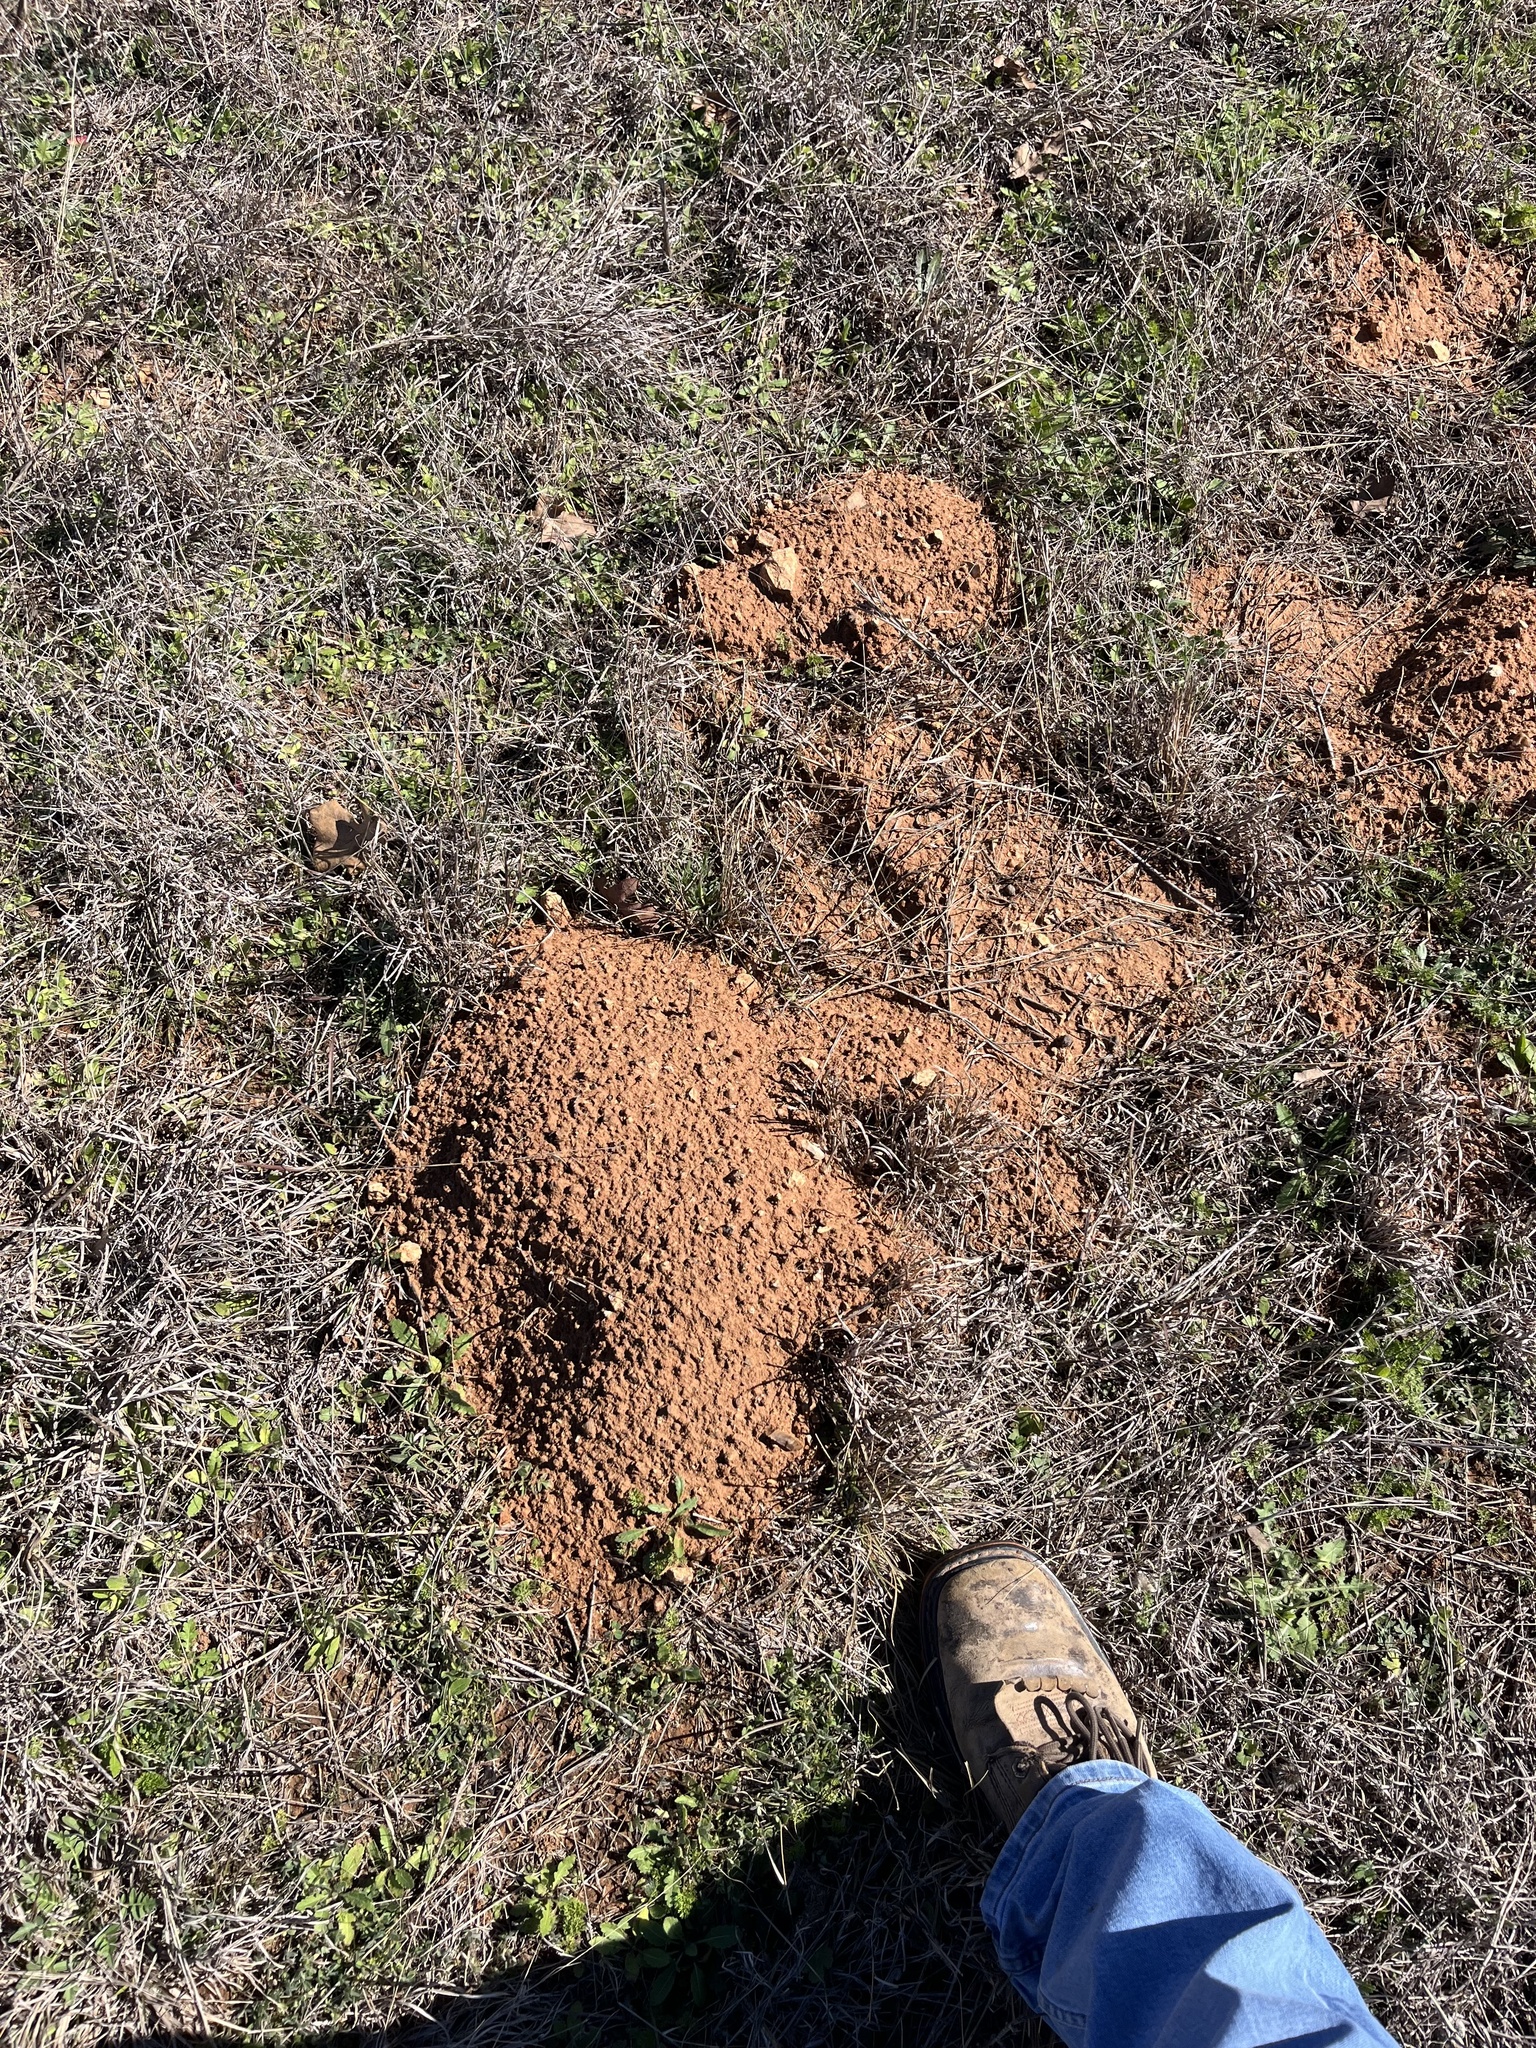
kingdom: Animalia
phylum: Chordata
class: Mammalia
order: Rodentia
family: Geomyidae
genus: Geomys
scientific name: Geomys texensis
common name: Llano pocket gopher
